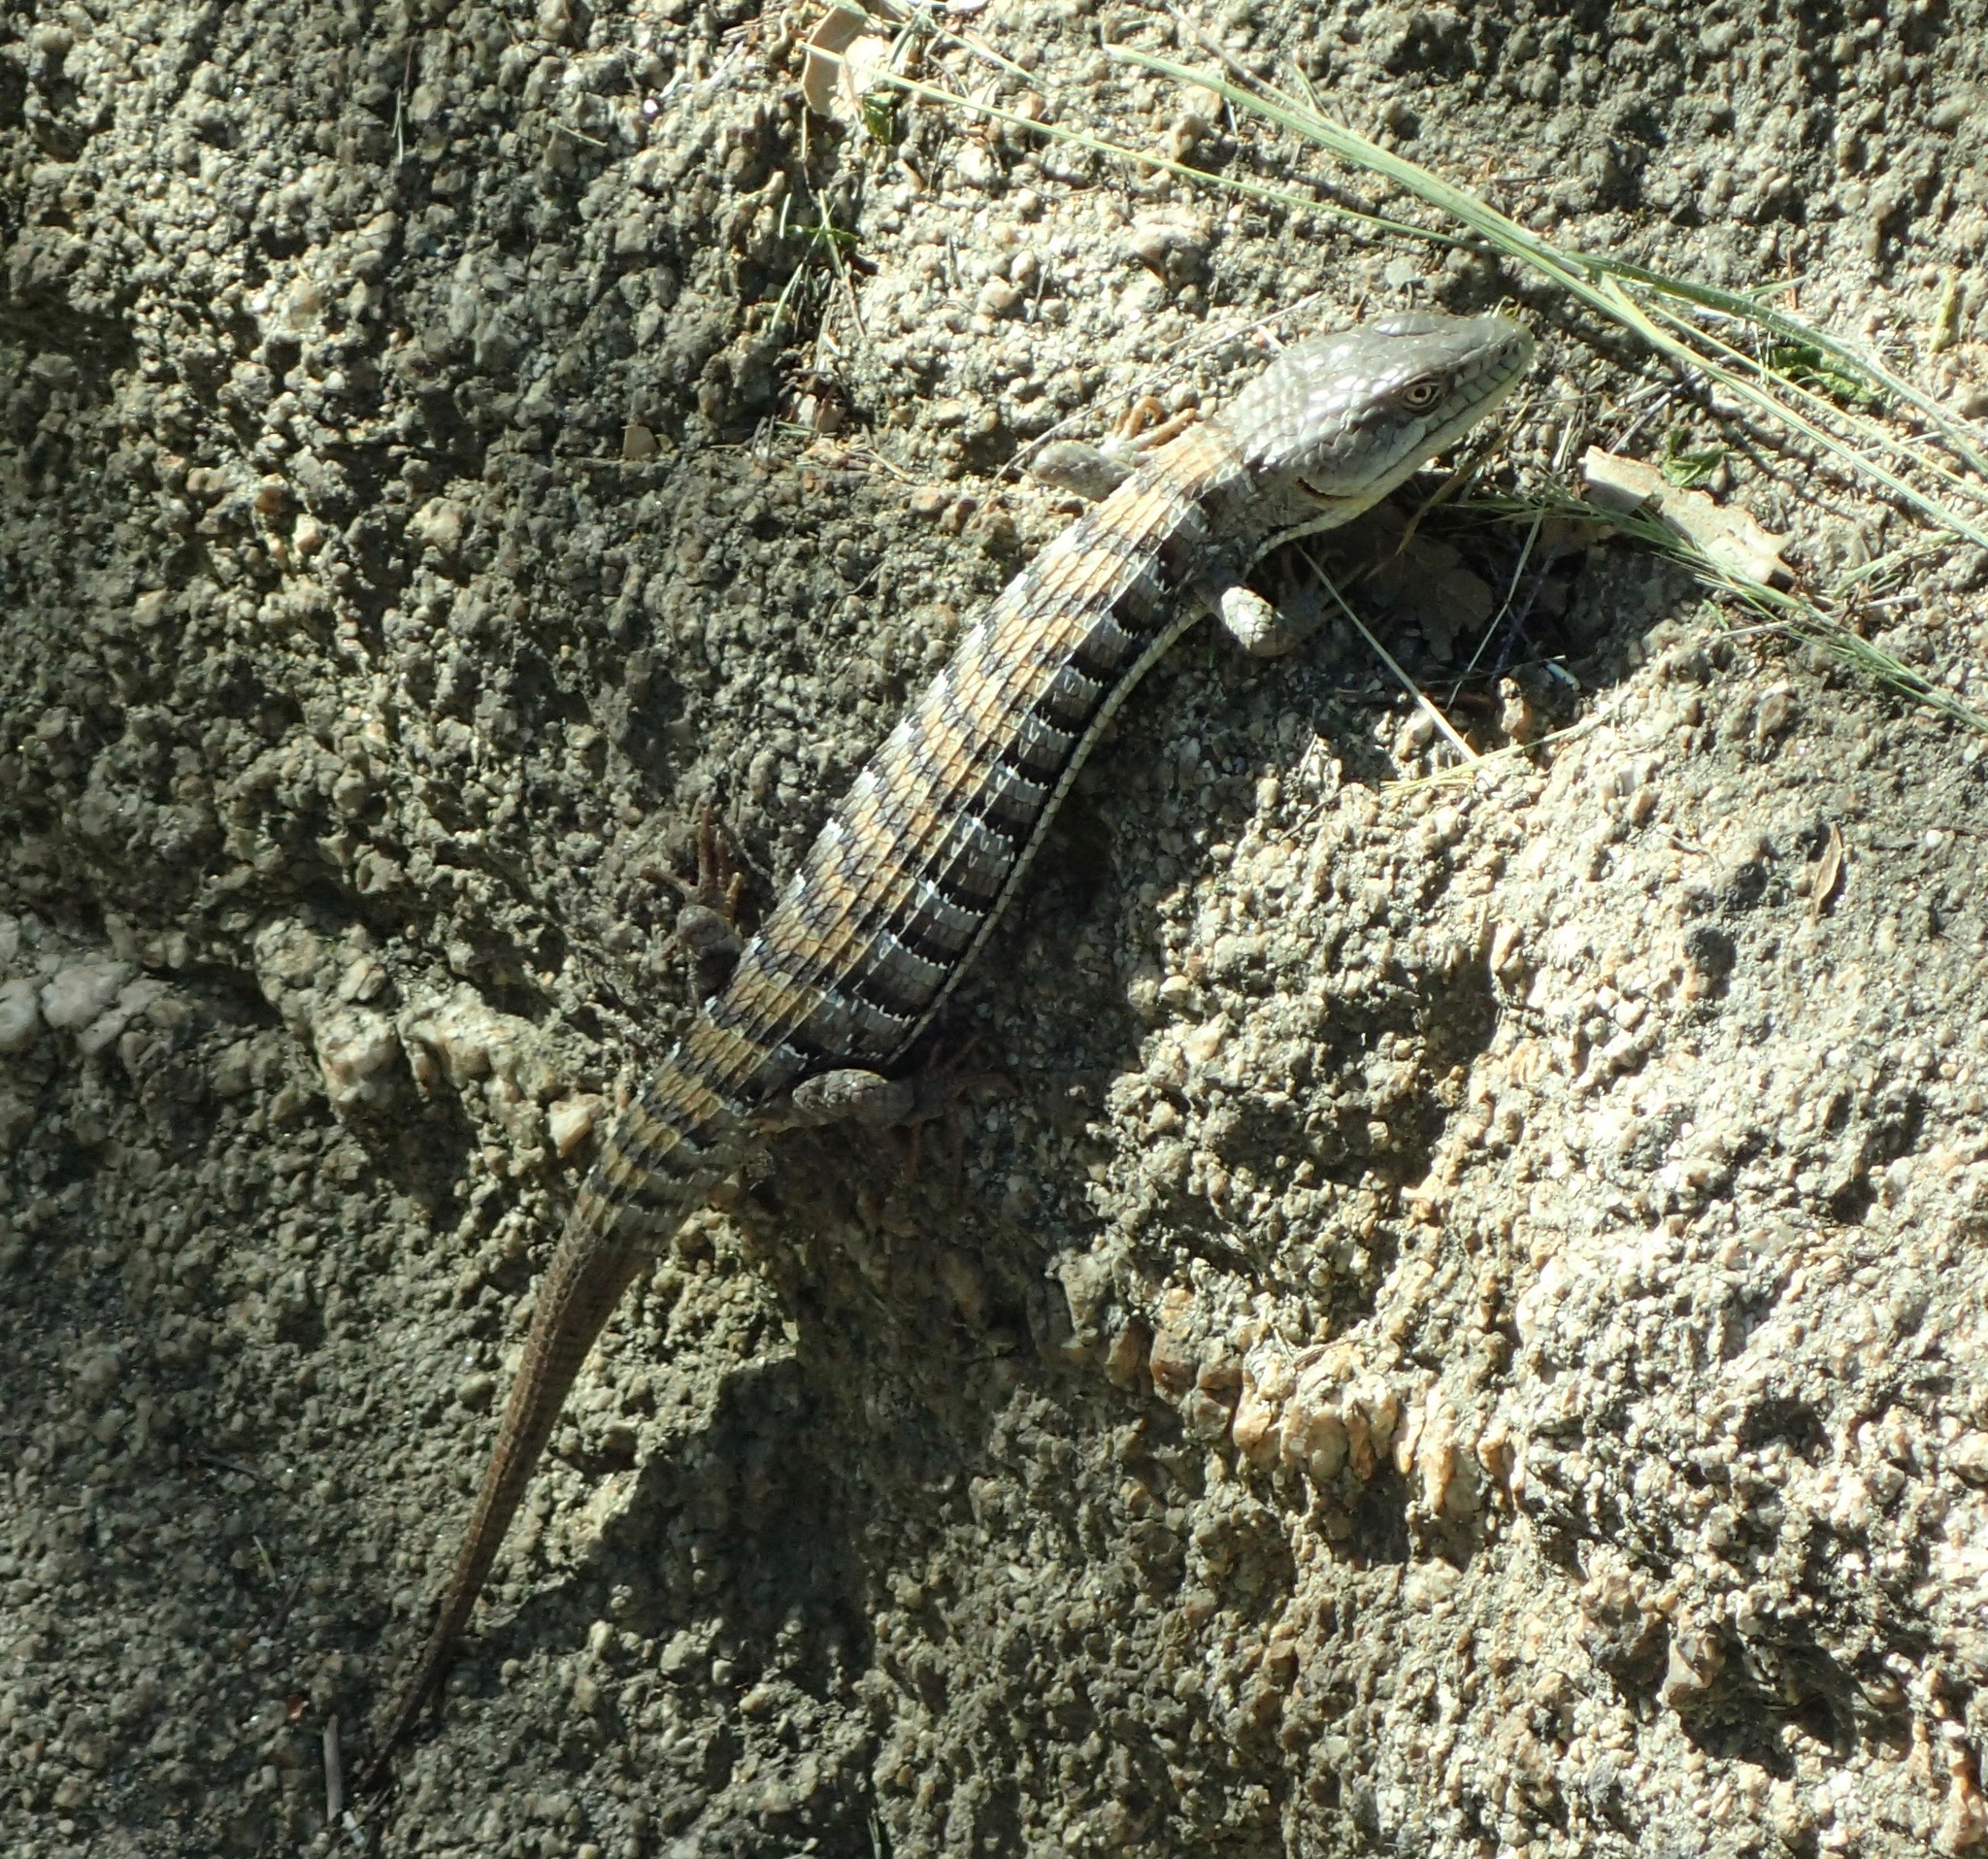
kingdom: Animalia
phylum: Chordata
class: Squamata
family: Anguidae
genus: Elgaria
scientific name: Elgaria multicarinata
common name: Southern alligator lizard
